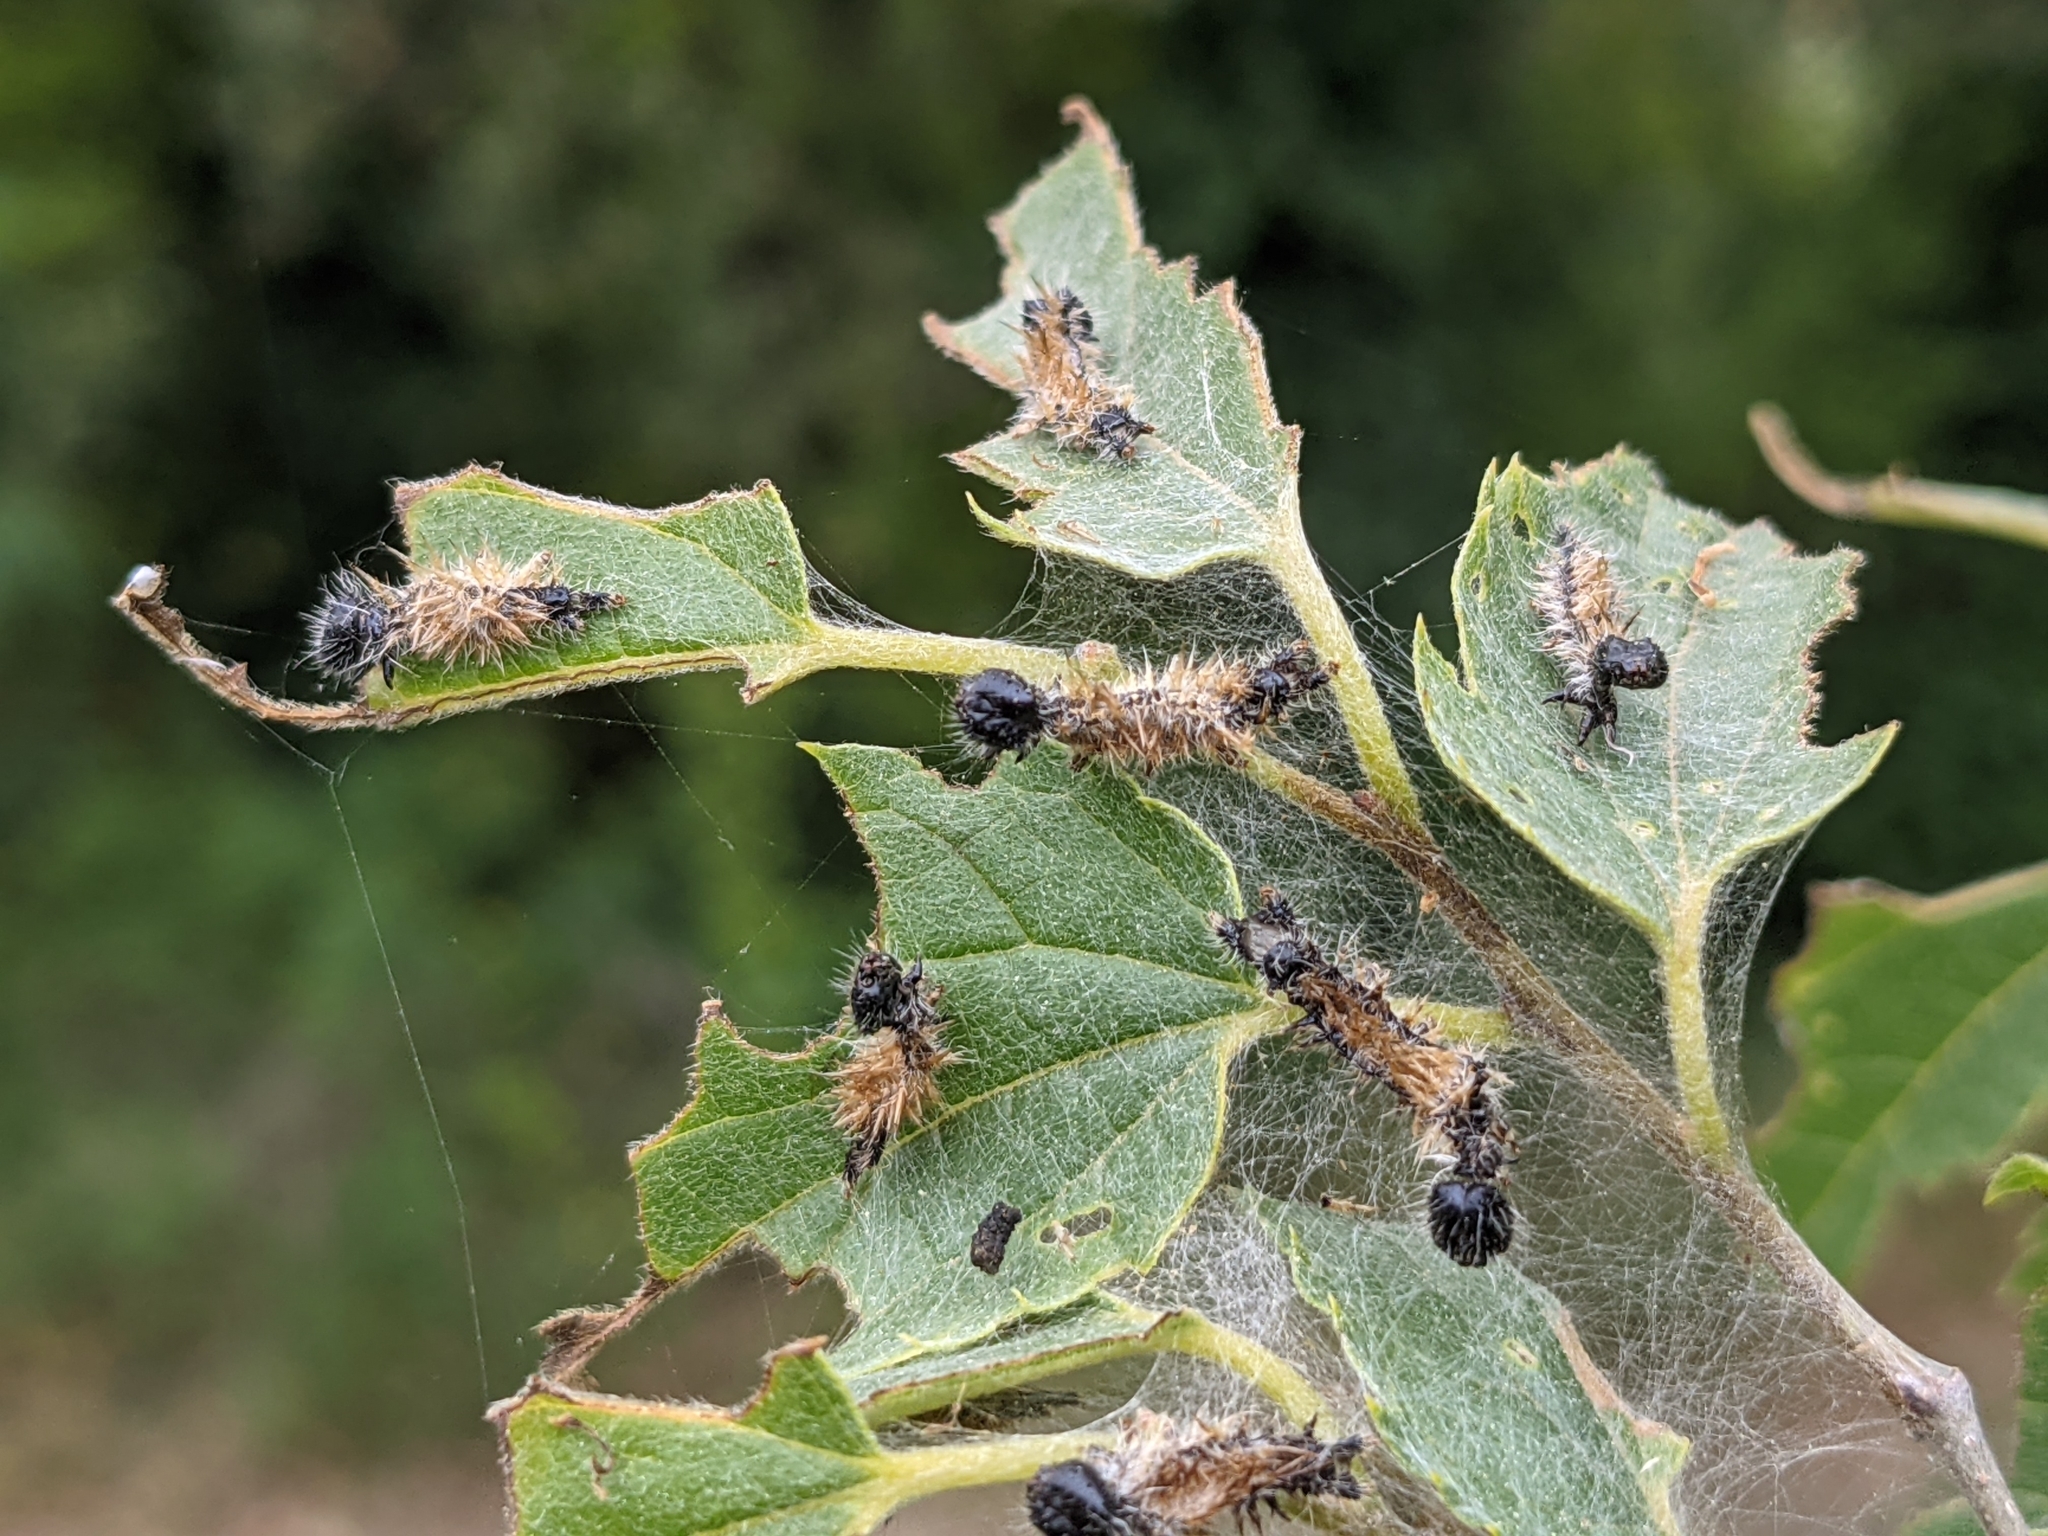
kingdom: Animalia
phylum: Arthropoda
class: Insecta
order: Lepidoptera
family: Nymphalidae
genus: Nymphalis
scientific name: Nymphalis polychloros
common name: Large tortoiseshell
